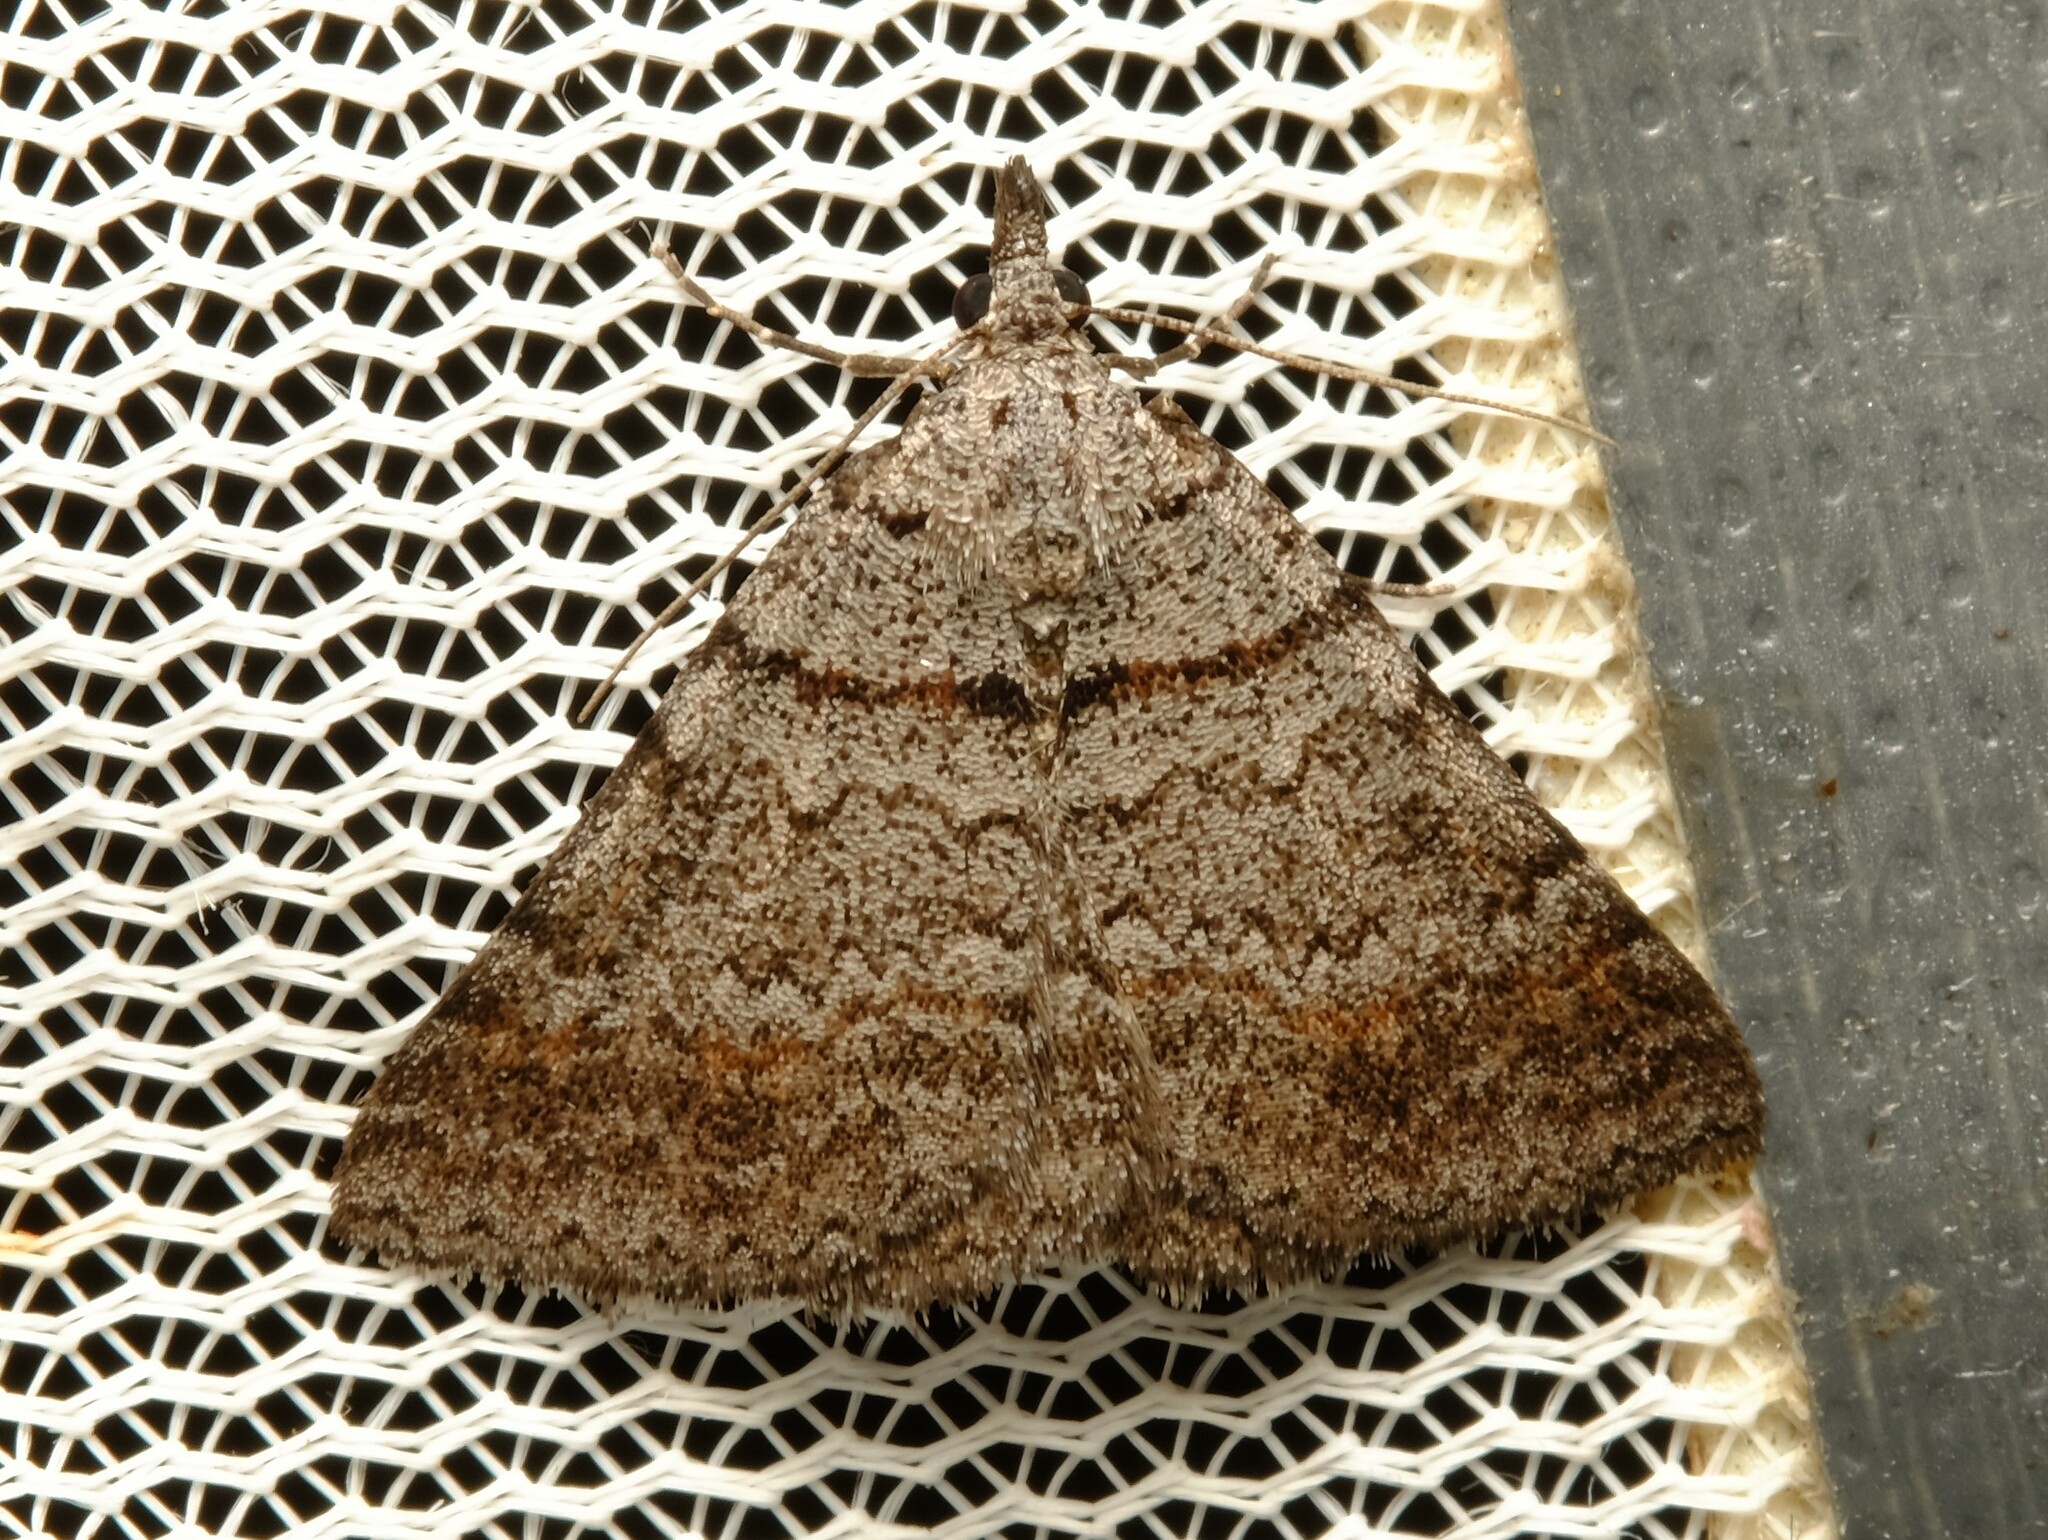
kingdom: Animalia
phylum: Arthropoda
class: Insecta
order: Lepidoptera
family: Geometridae
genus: Dichromodes
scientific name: Dichromodes obtusata
